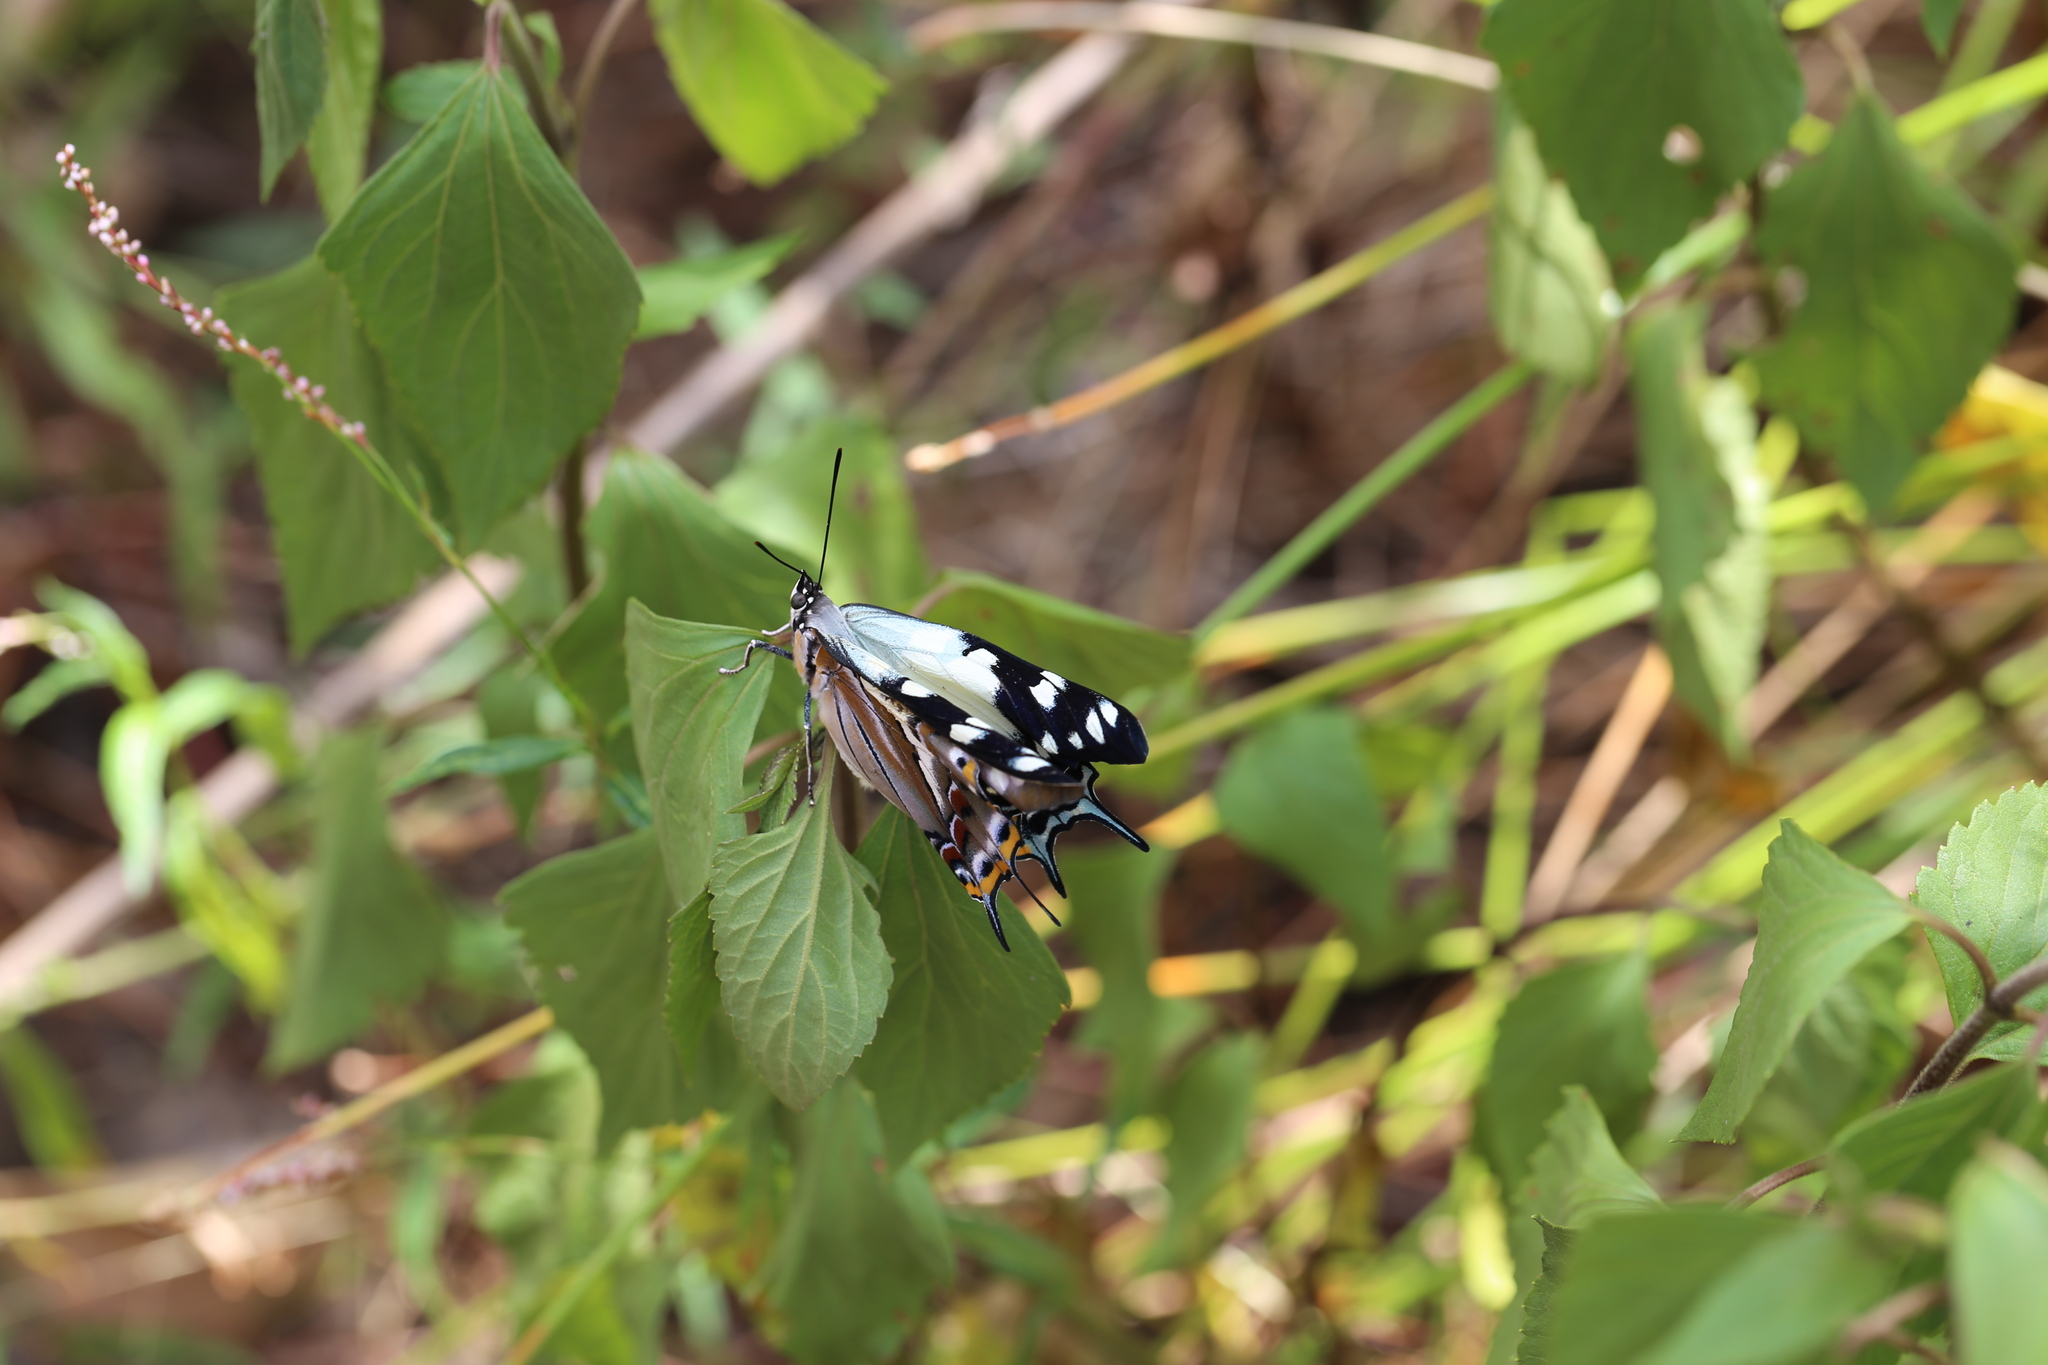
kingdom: Animalia
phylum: Arthropoda
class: Insecta
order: Lepidoptera
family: Nymphalidae
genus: Charaxes
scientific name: Charaxes
